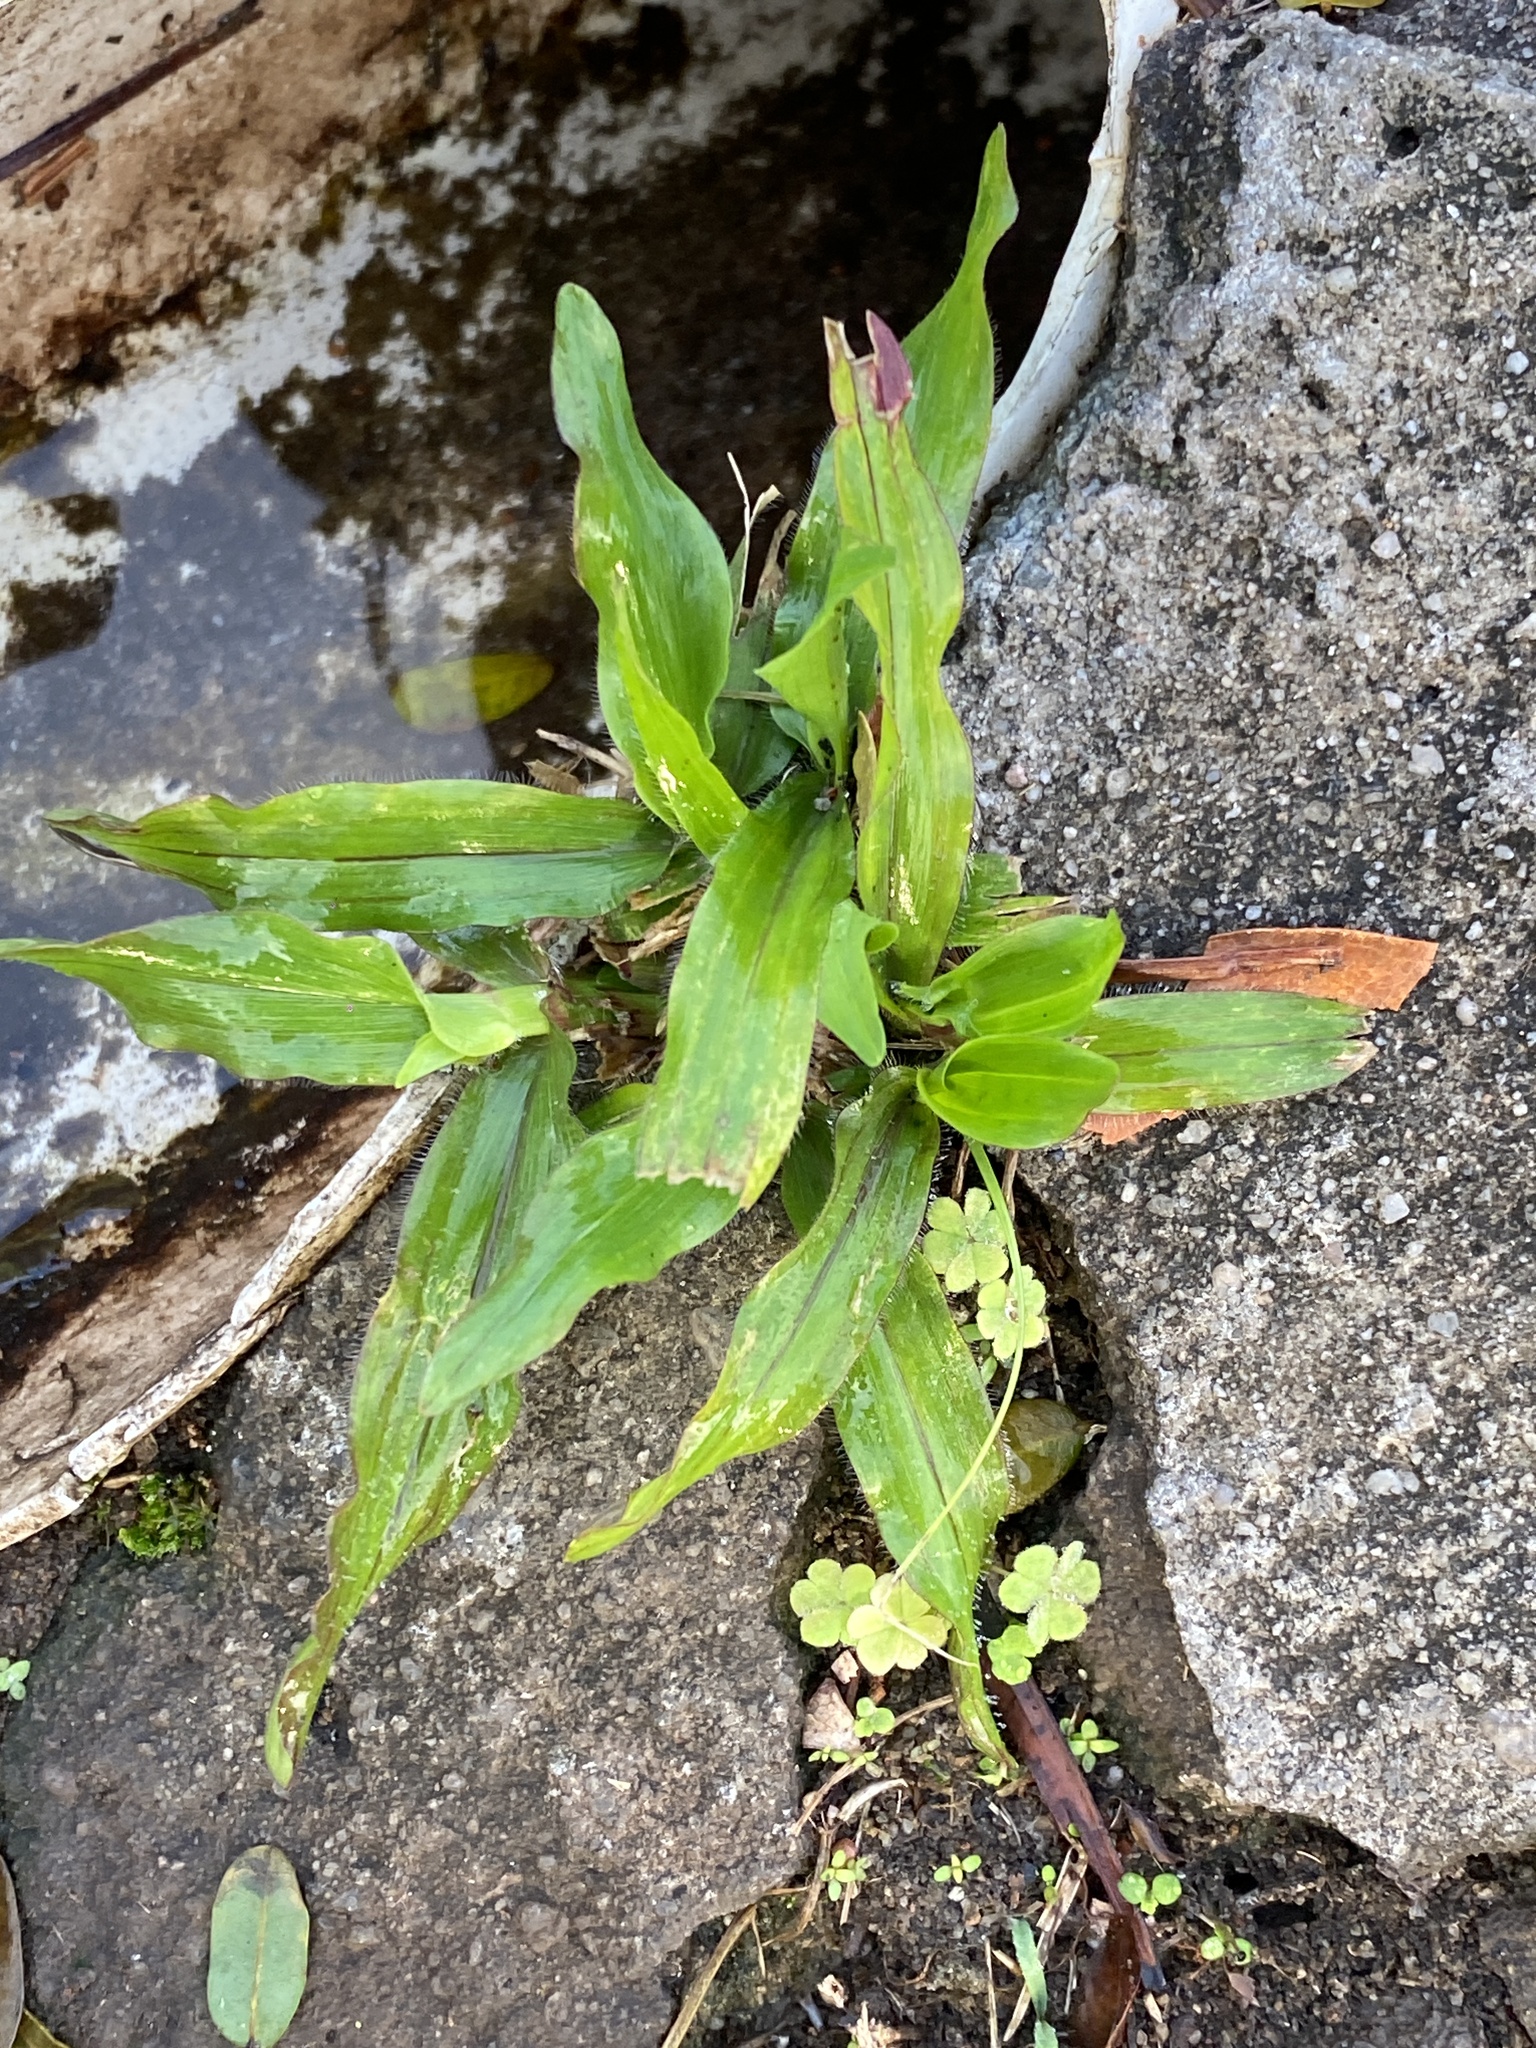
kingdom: Plantae
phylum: Tracheophyta
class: Liliopsida
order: Poales
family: Poaceae
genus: Axonopus
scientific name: Axonopus compressus
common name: American carpet grass
